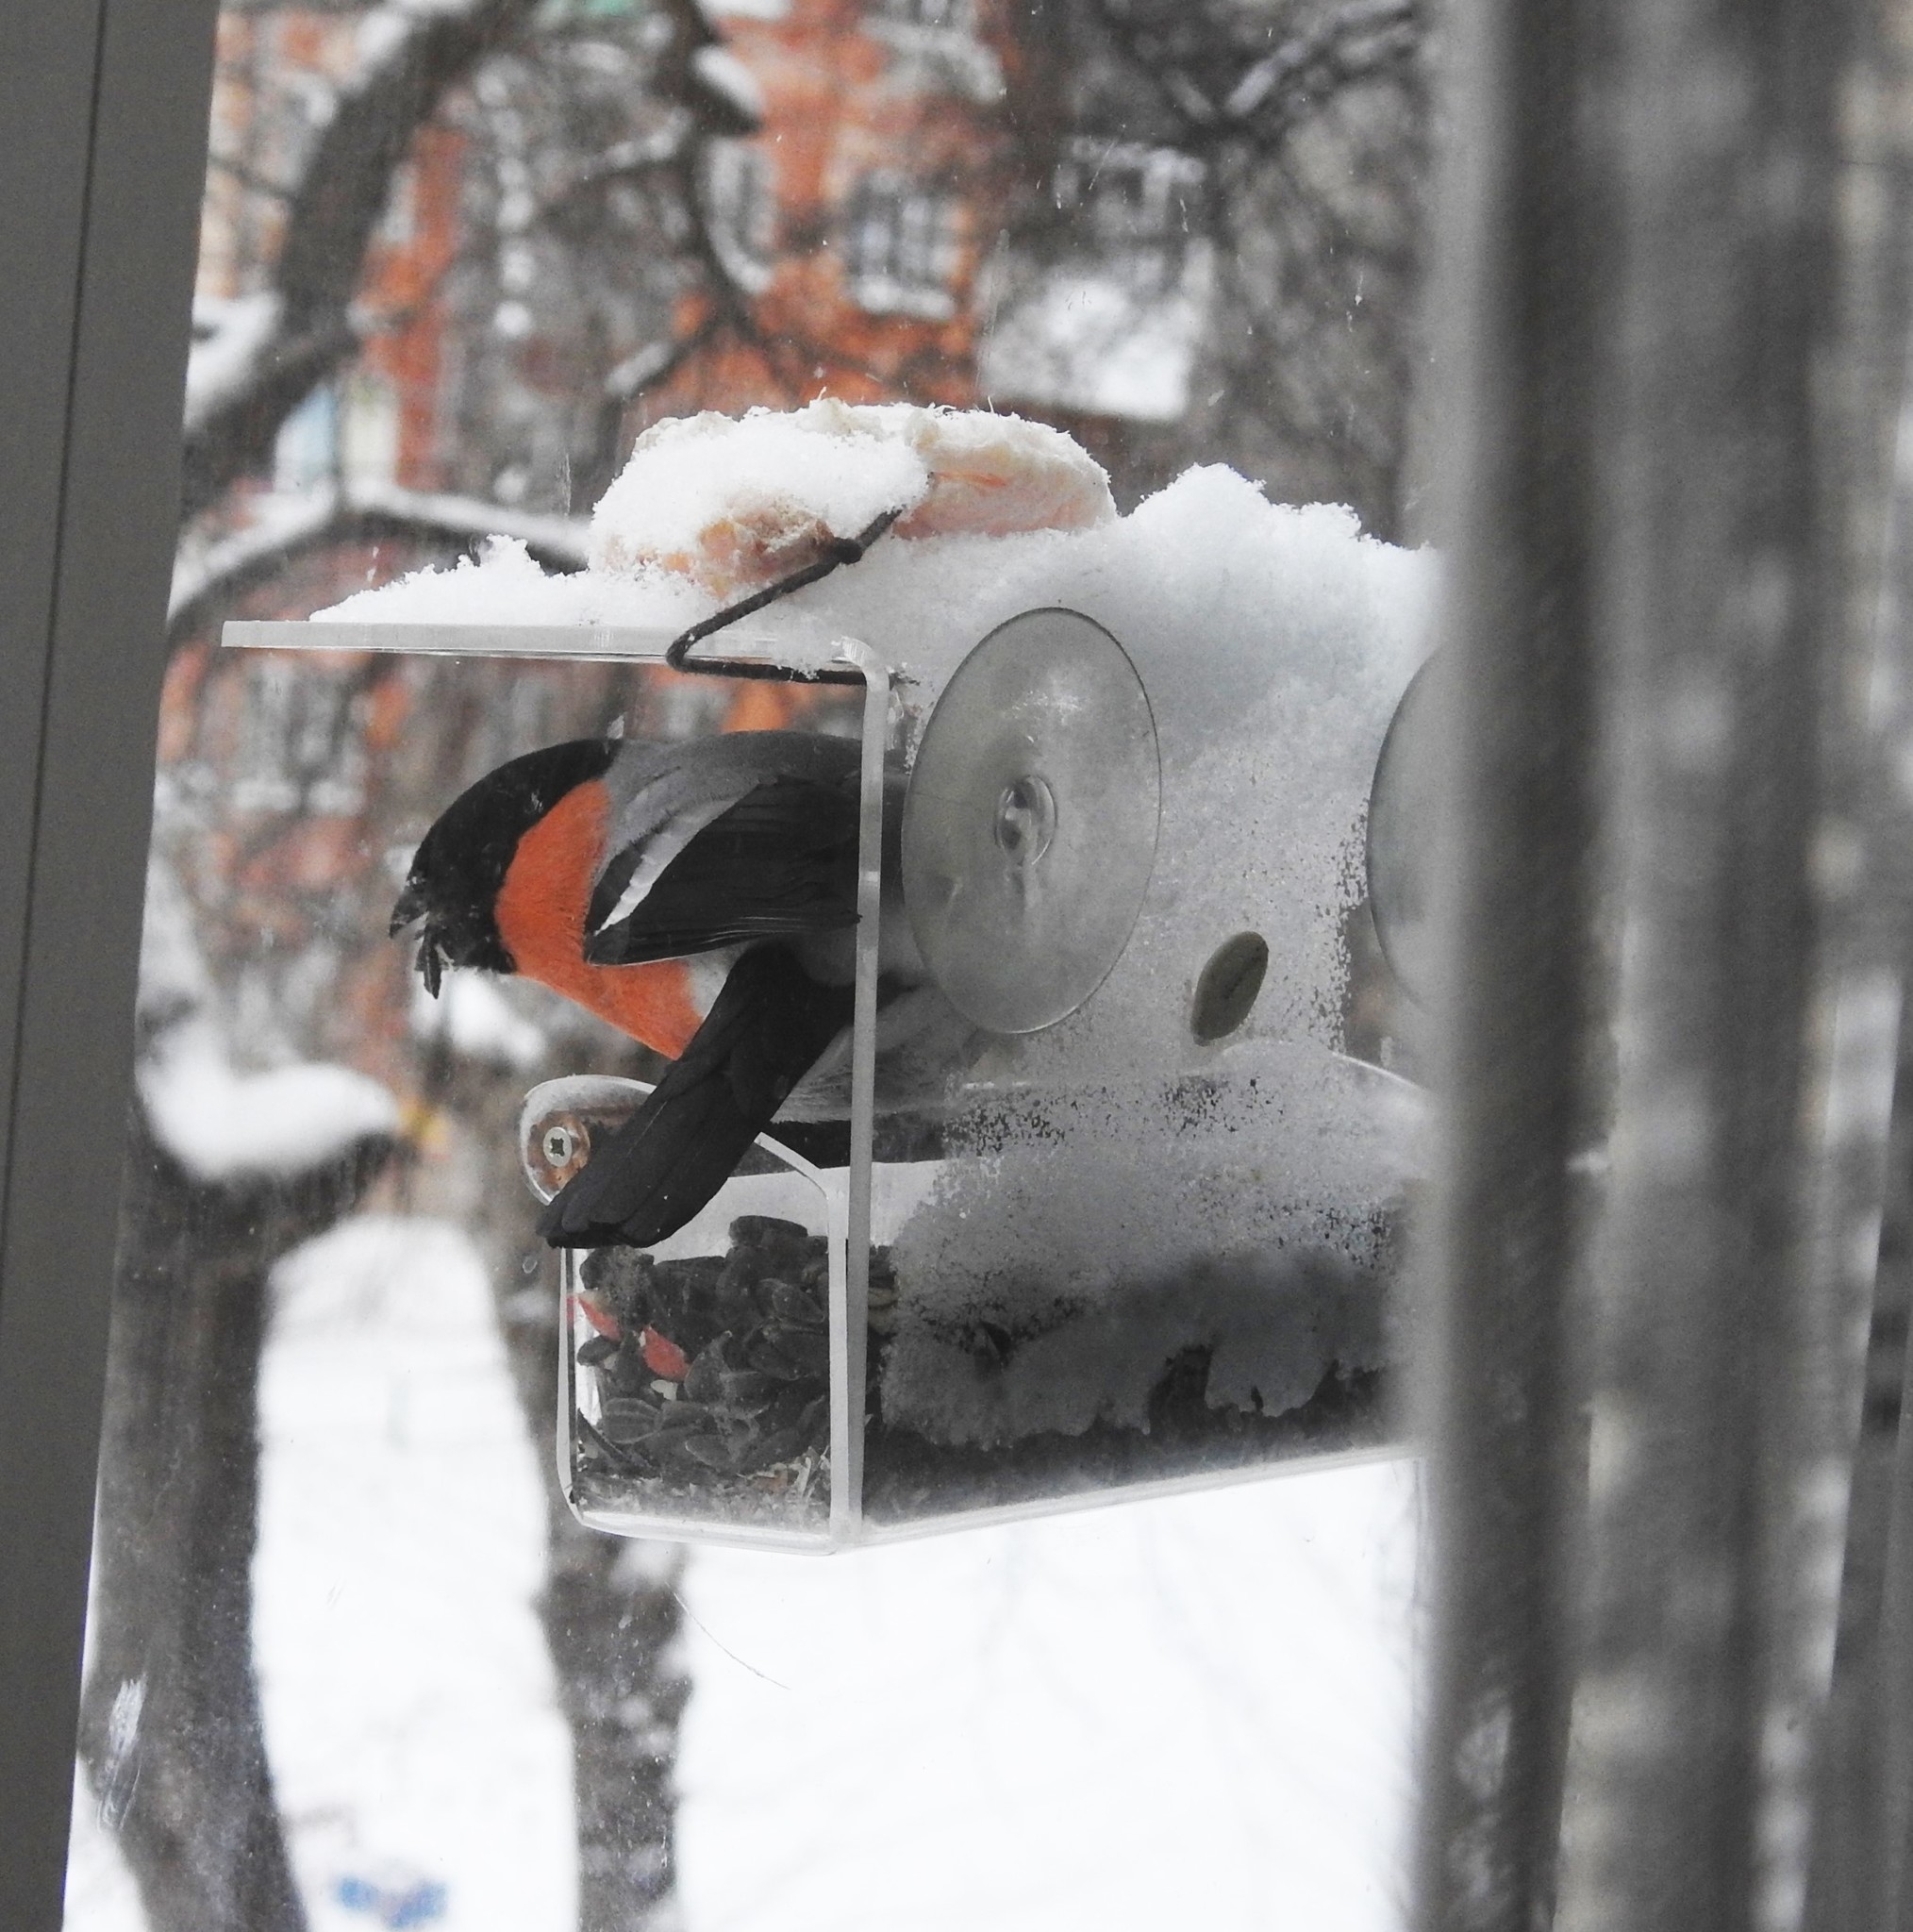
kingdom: Animalia
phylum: Chordata
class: Aves
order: Passeriformes
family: Fringillidae
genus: Pyrrhula
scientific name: Pyrrhula pyrrhula
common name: Eurasian bullfinch
